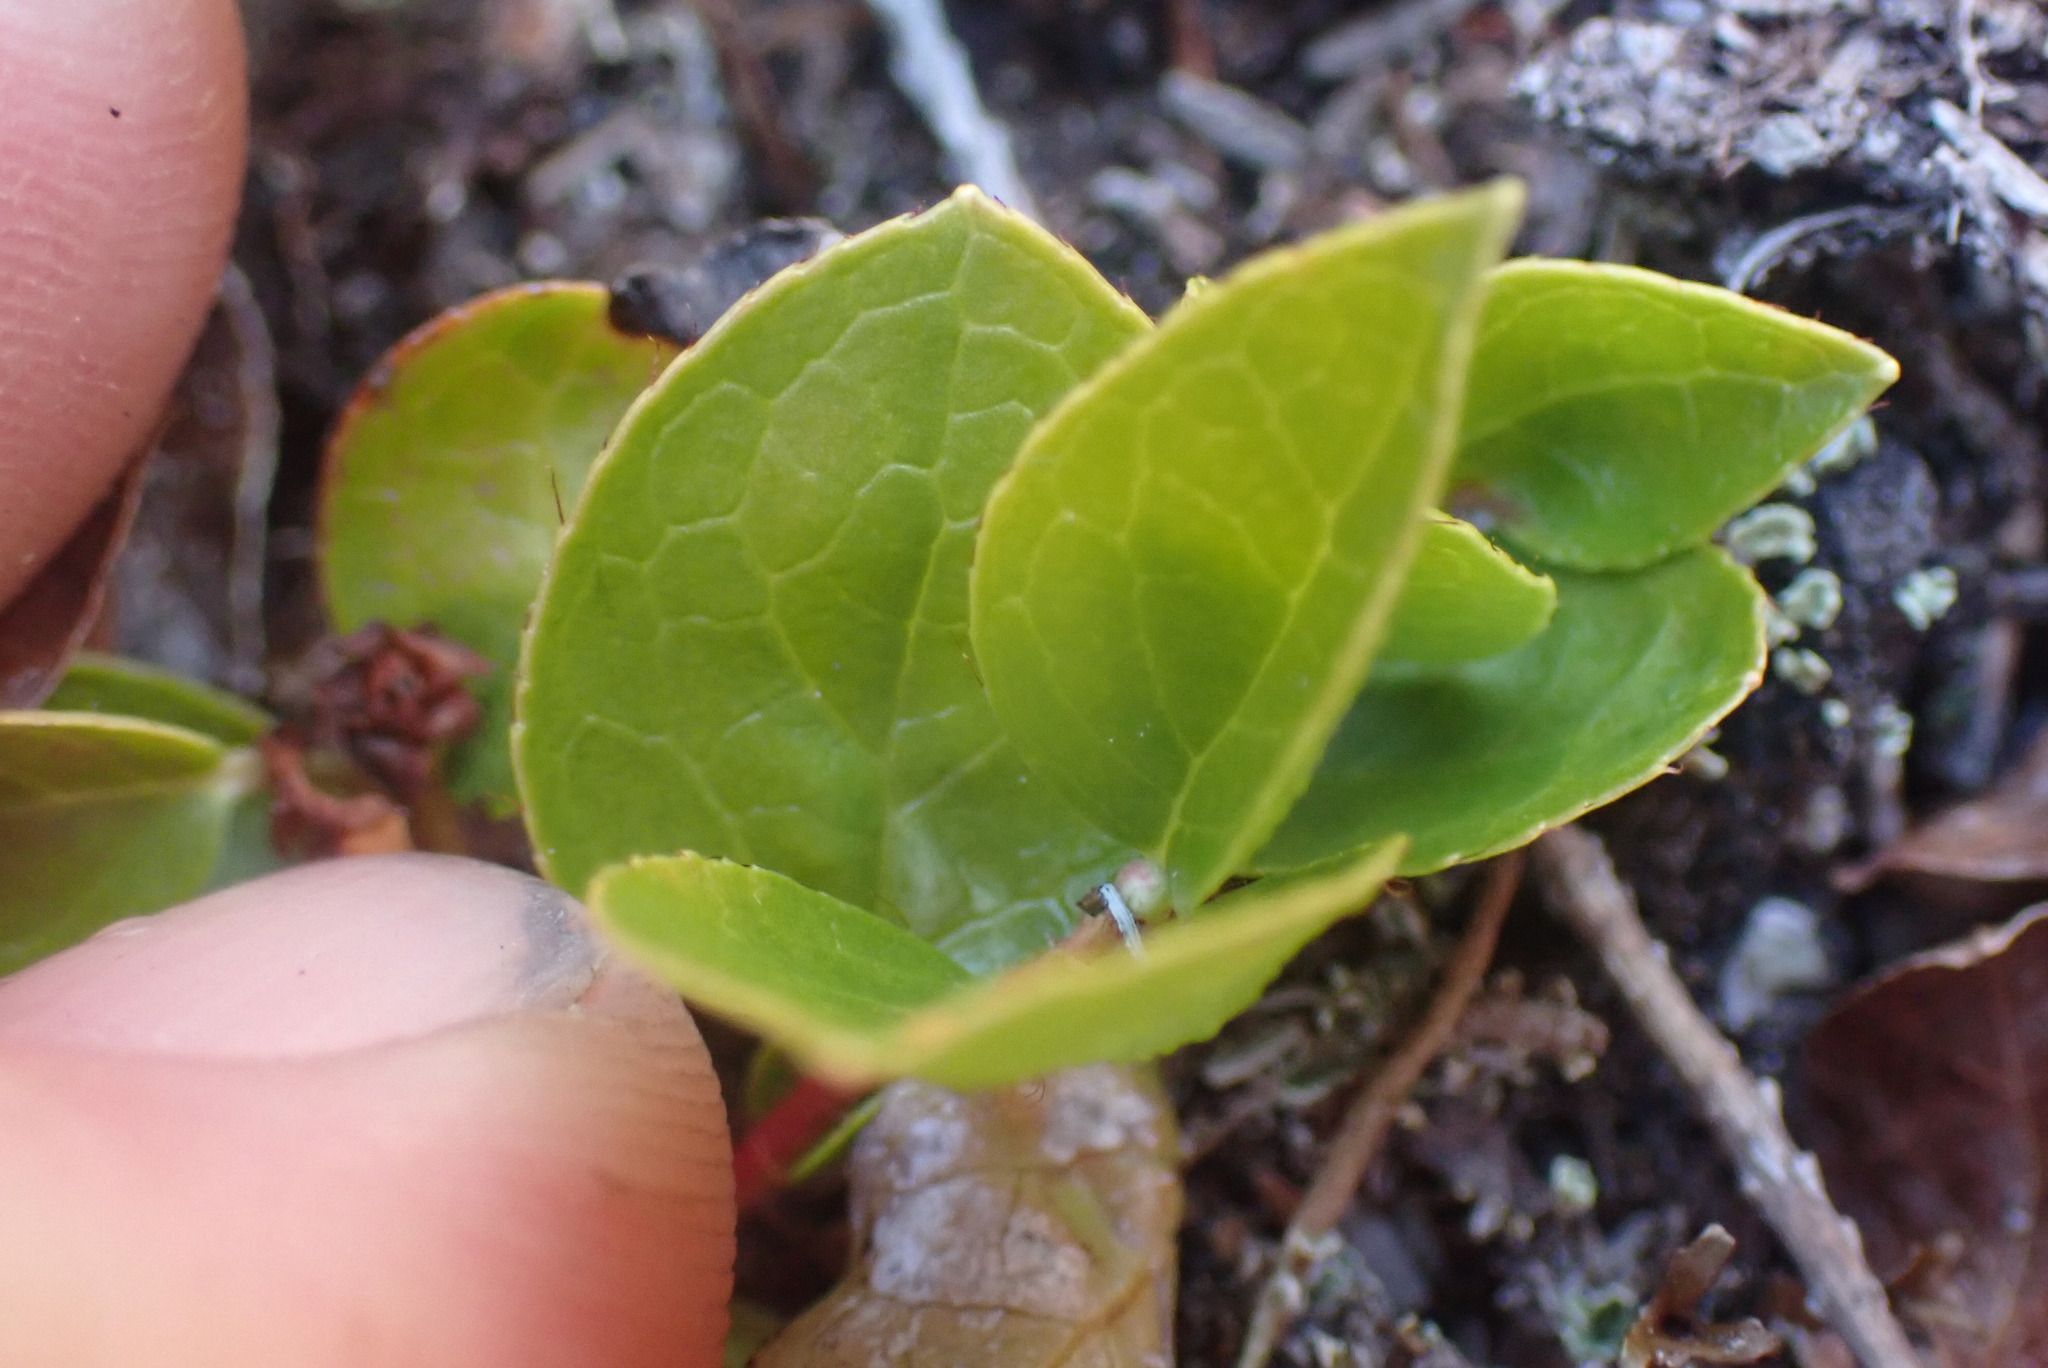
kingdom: Plantae
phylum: Tracheophyta
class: Magnoliopsida
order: Ericales
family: Ericaceae
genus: Gaultheria
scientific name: Gaultheria ovatifolia
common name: Oregon wintergreen
